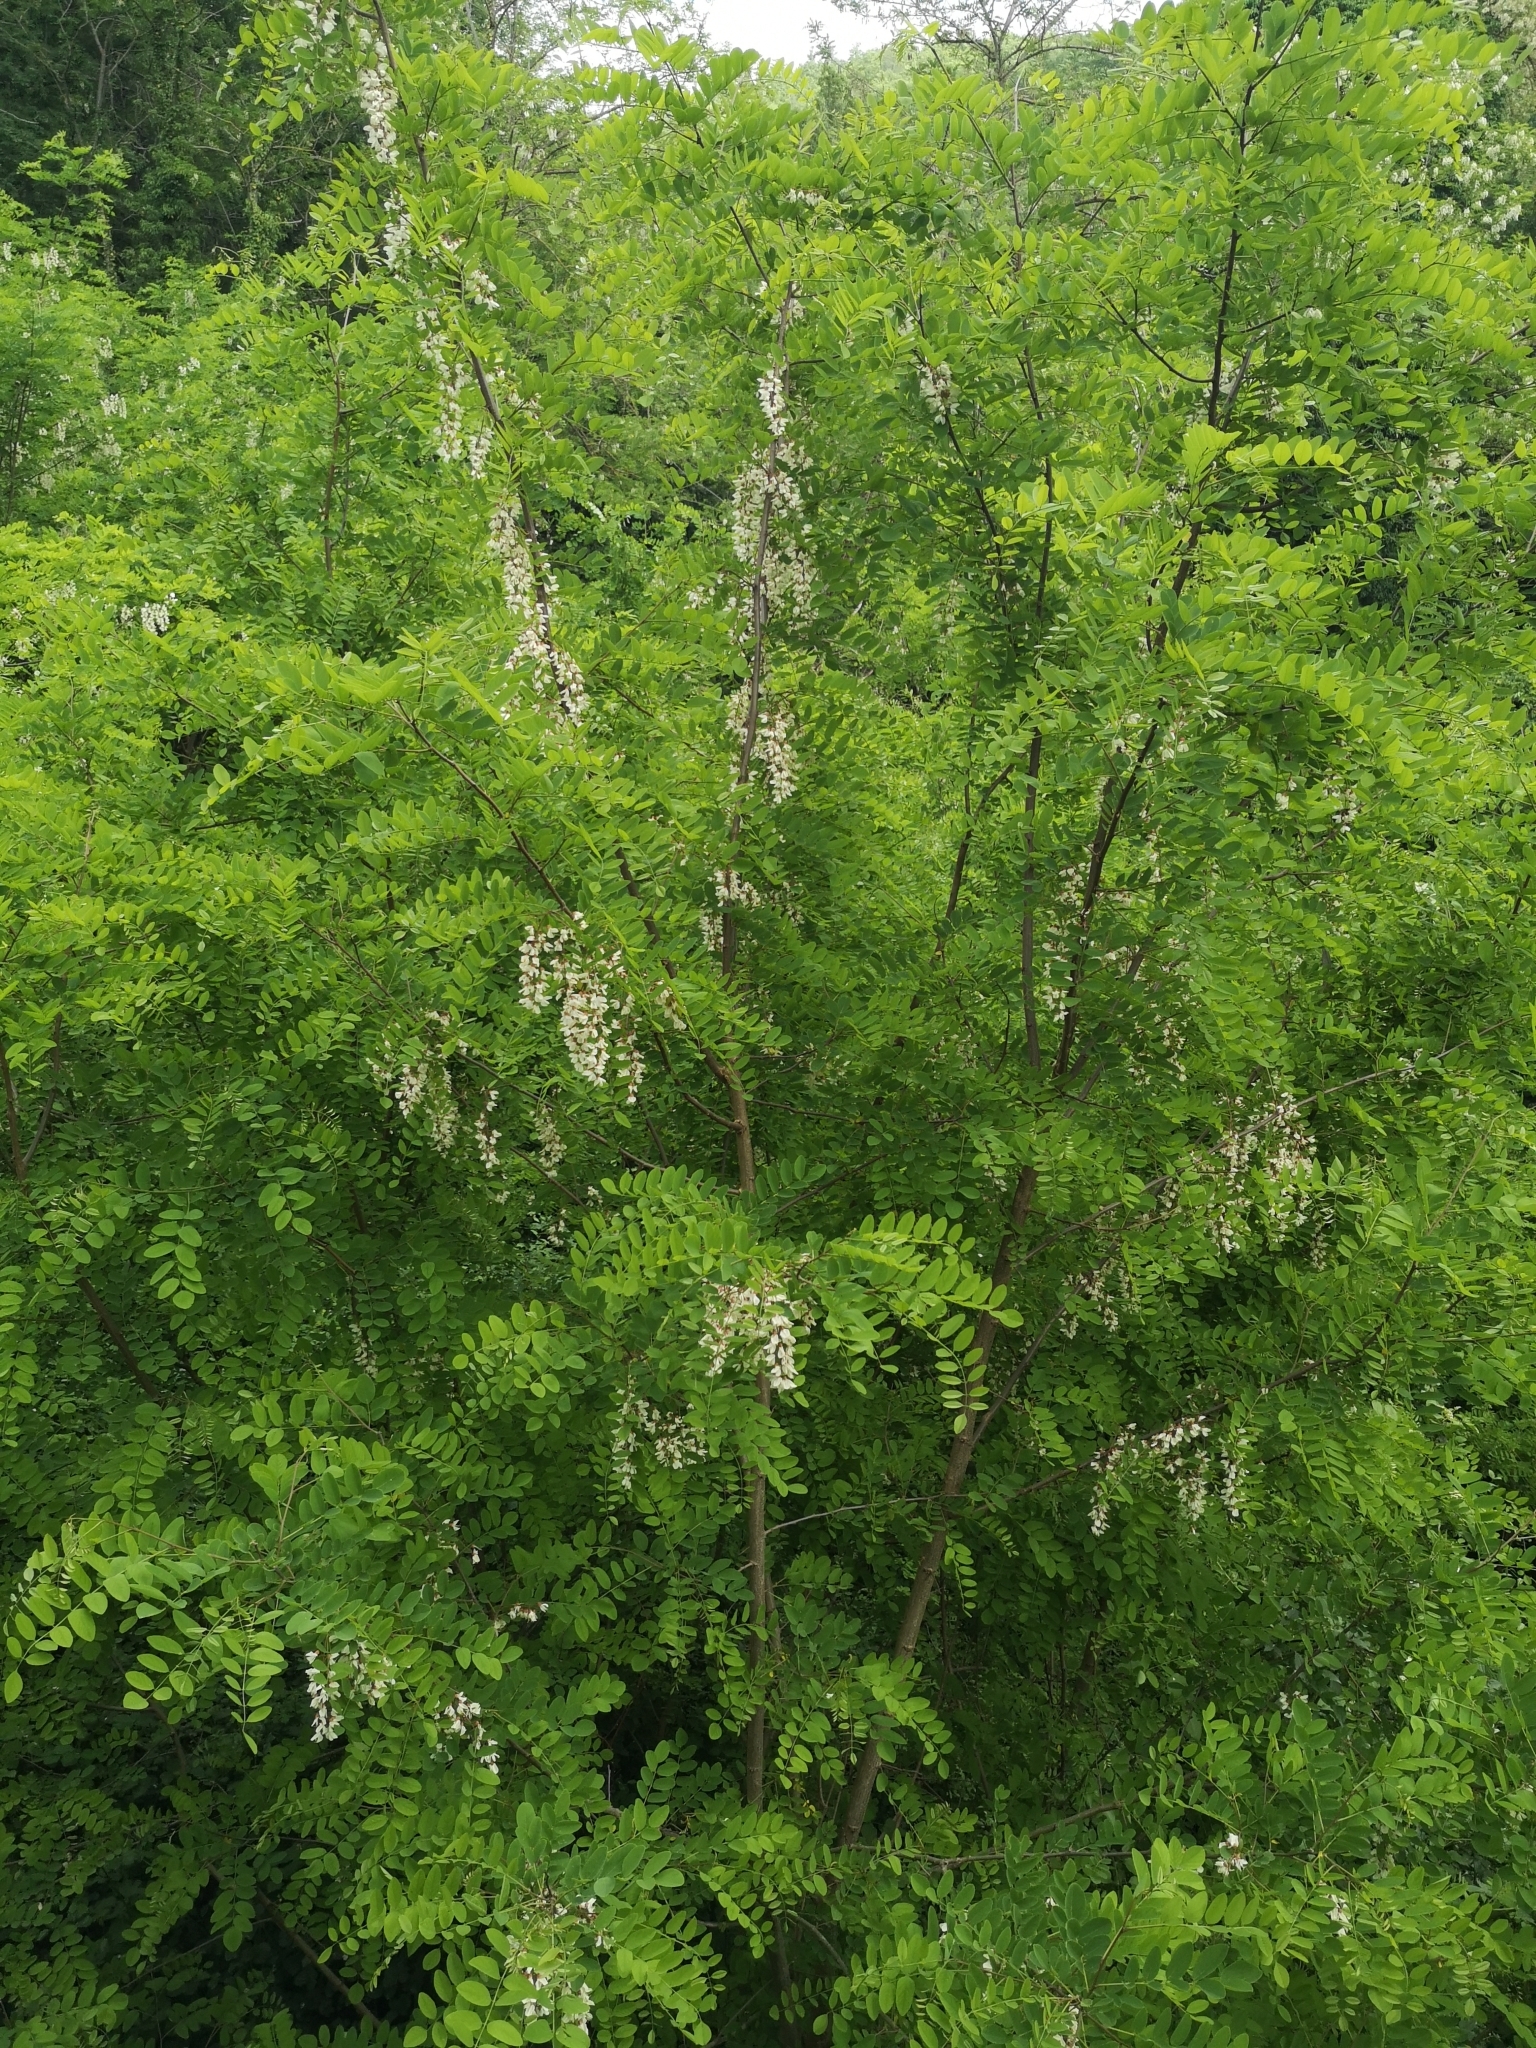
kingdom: Plantae
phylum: Tracheophyta
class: Magnoliopsida
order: Fabales
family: Fabaceae
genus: Robinia
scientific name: Robinia pseudoacacia
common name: Black locust
